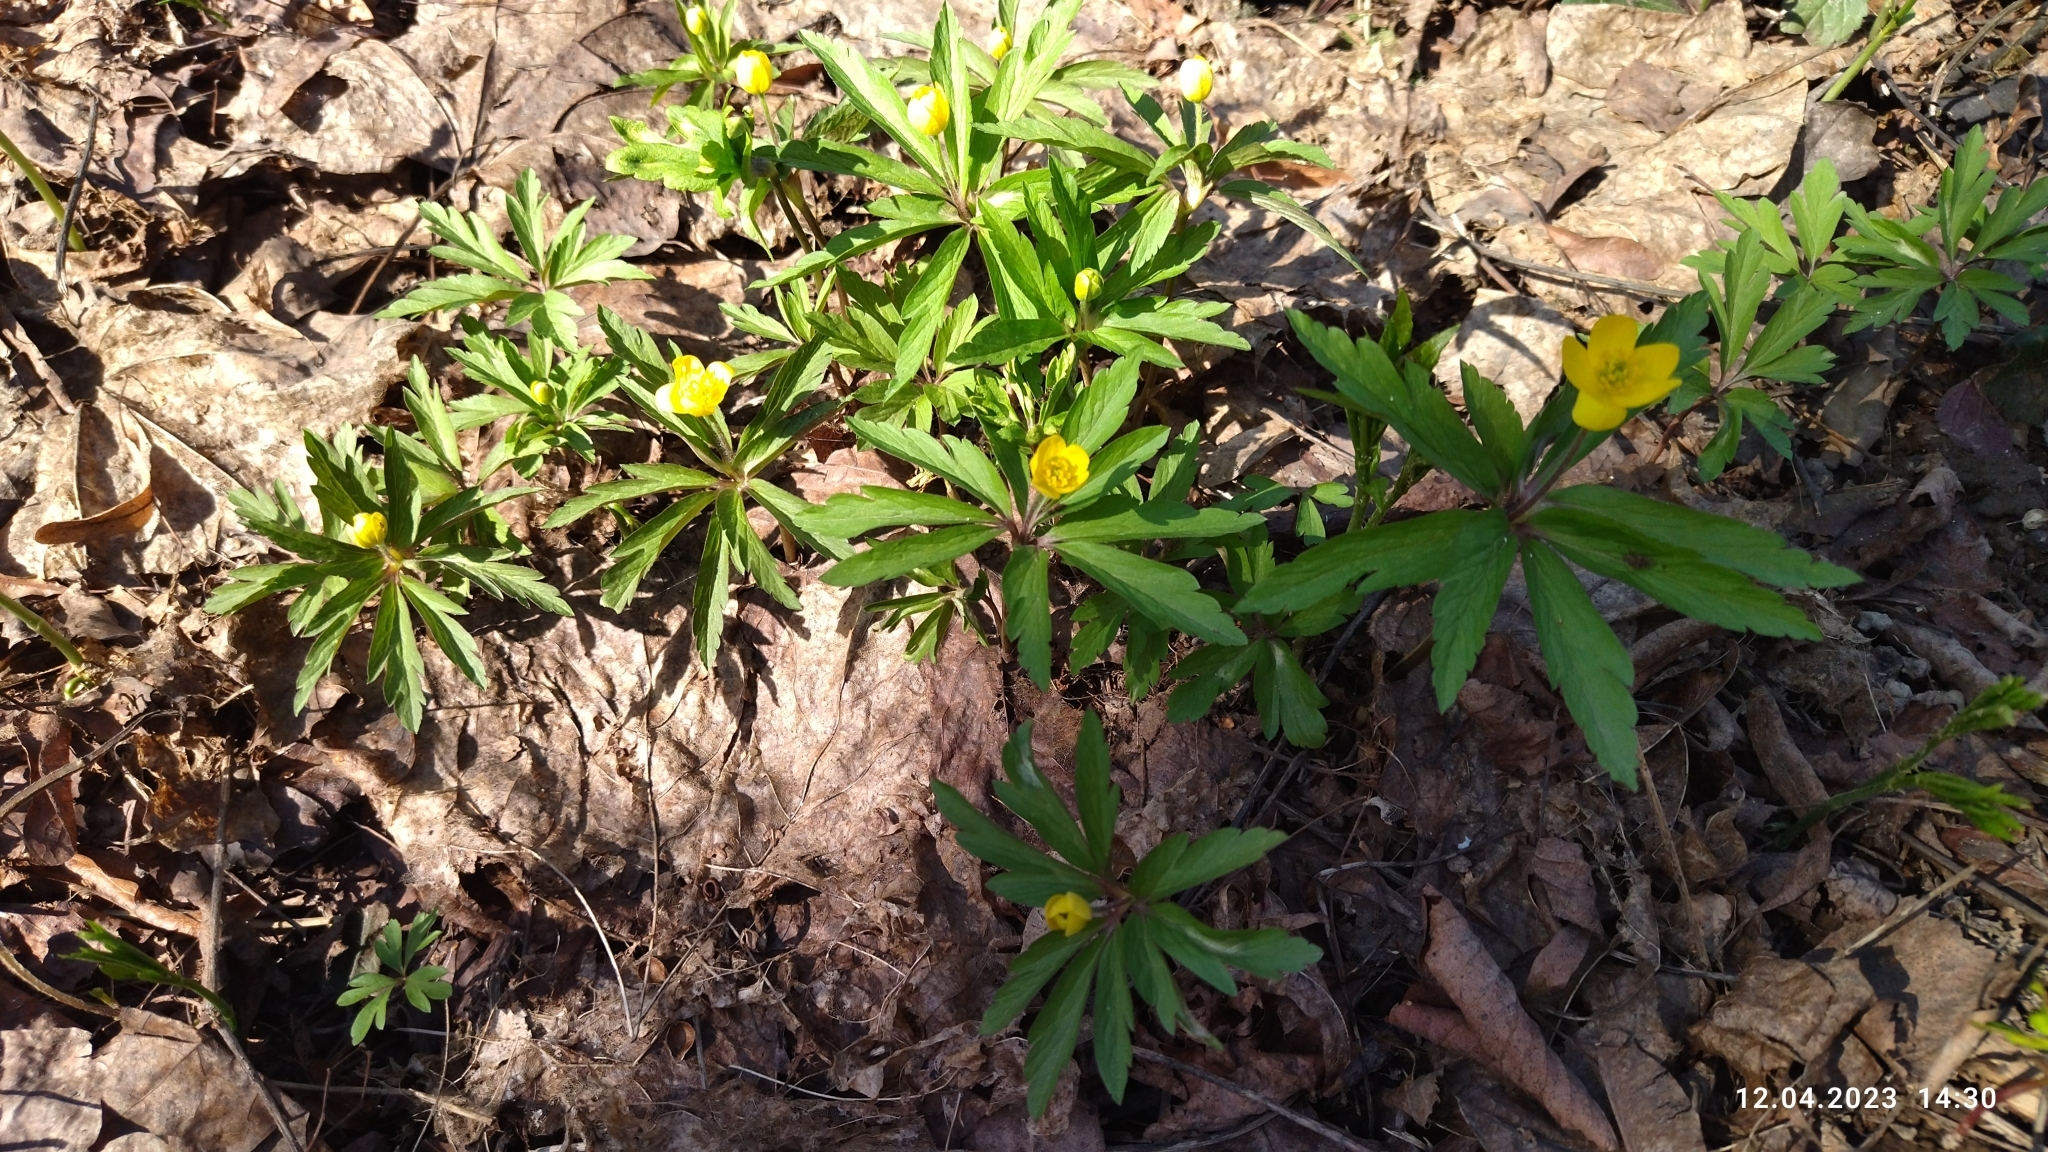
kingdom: Plantae
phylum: Tracheophyta
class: Magnoliopsida
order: Ranunculales
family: Ranunculaceae
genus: Anemone
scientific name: Anemone ranunculoides
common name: Yellow anemone
